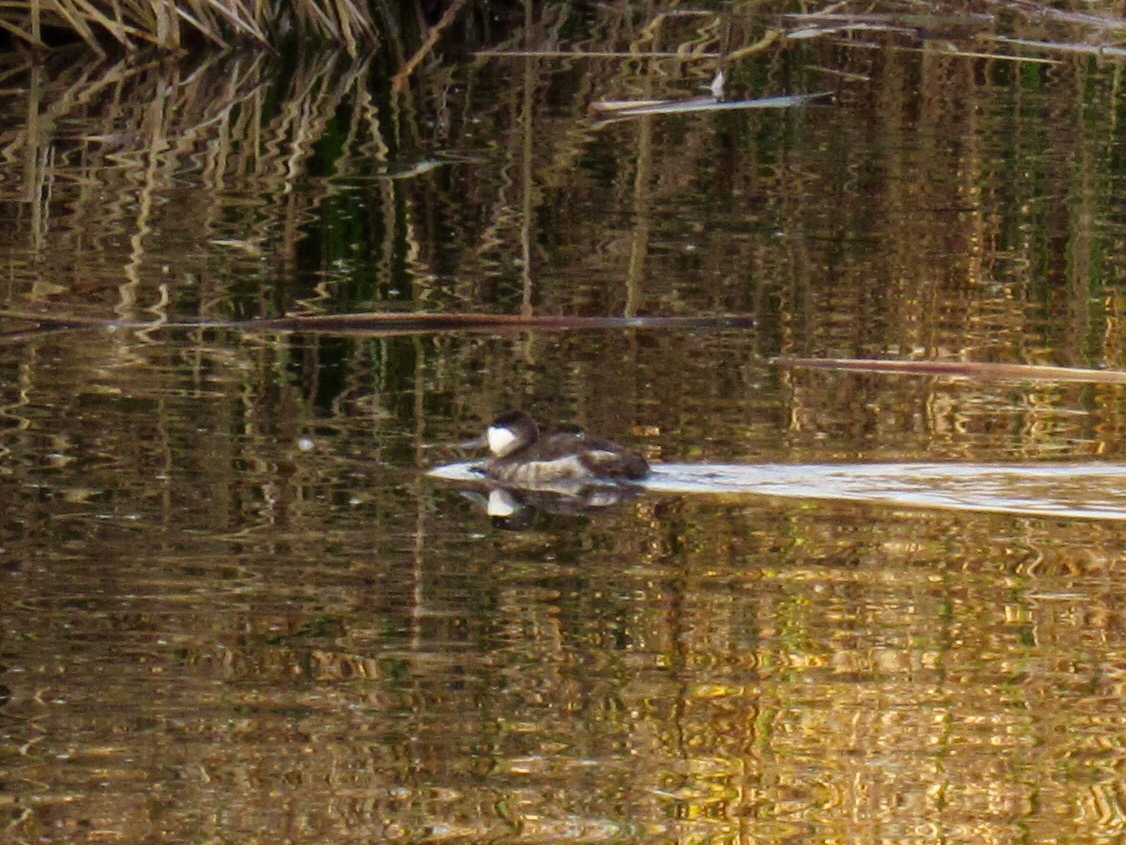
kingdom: Animalia
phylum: Chordata
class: Aves
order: Anseriformes
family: Anatidae
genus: Oxyura
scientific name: Oxyura jamaicensis
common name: Ruddy duck
